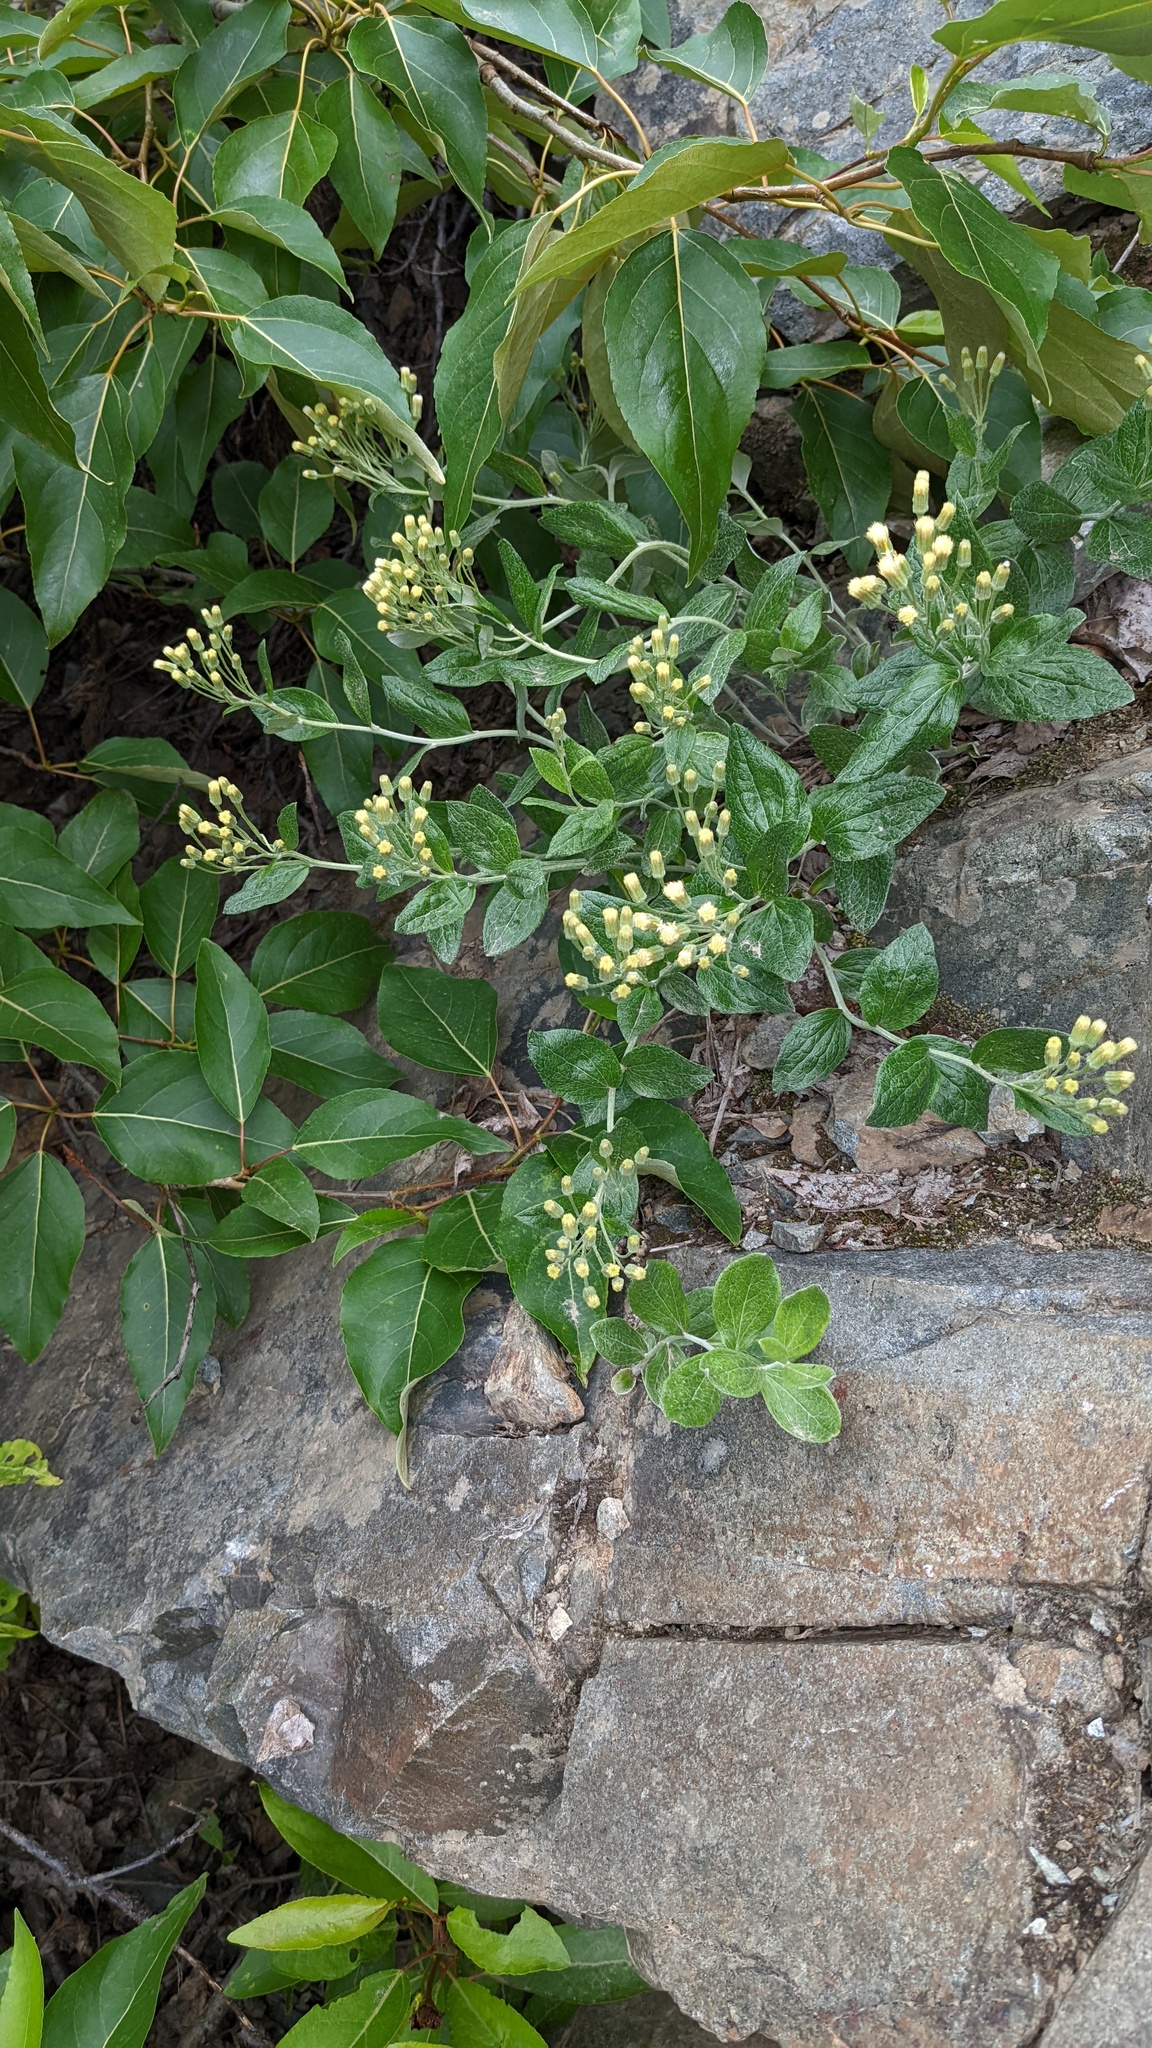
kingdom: Plantae
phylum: Tracheophyta
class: Magnoliopsida
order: Asterales
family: Asteraceae
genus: Luina
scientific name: Luina hypoleuca
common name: Little-leaved luina
